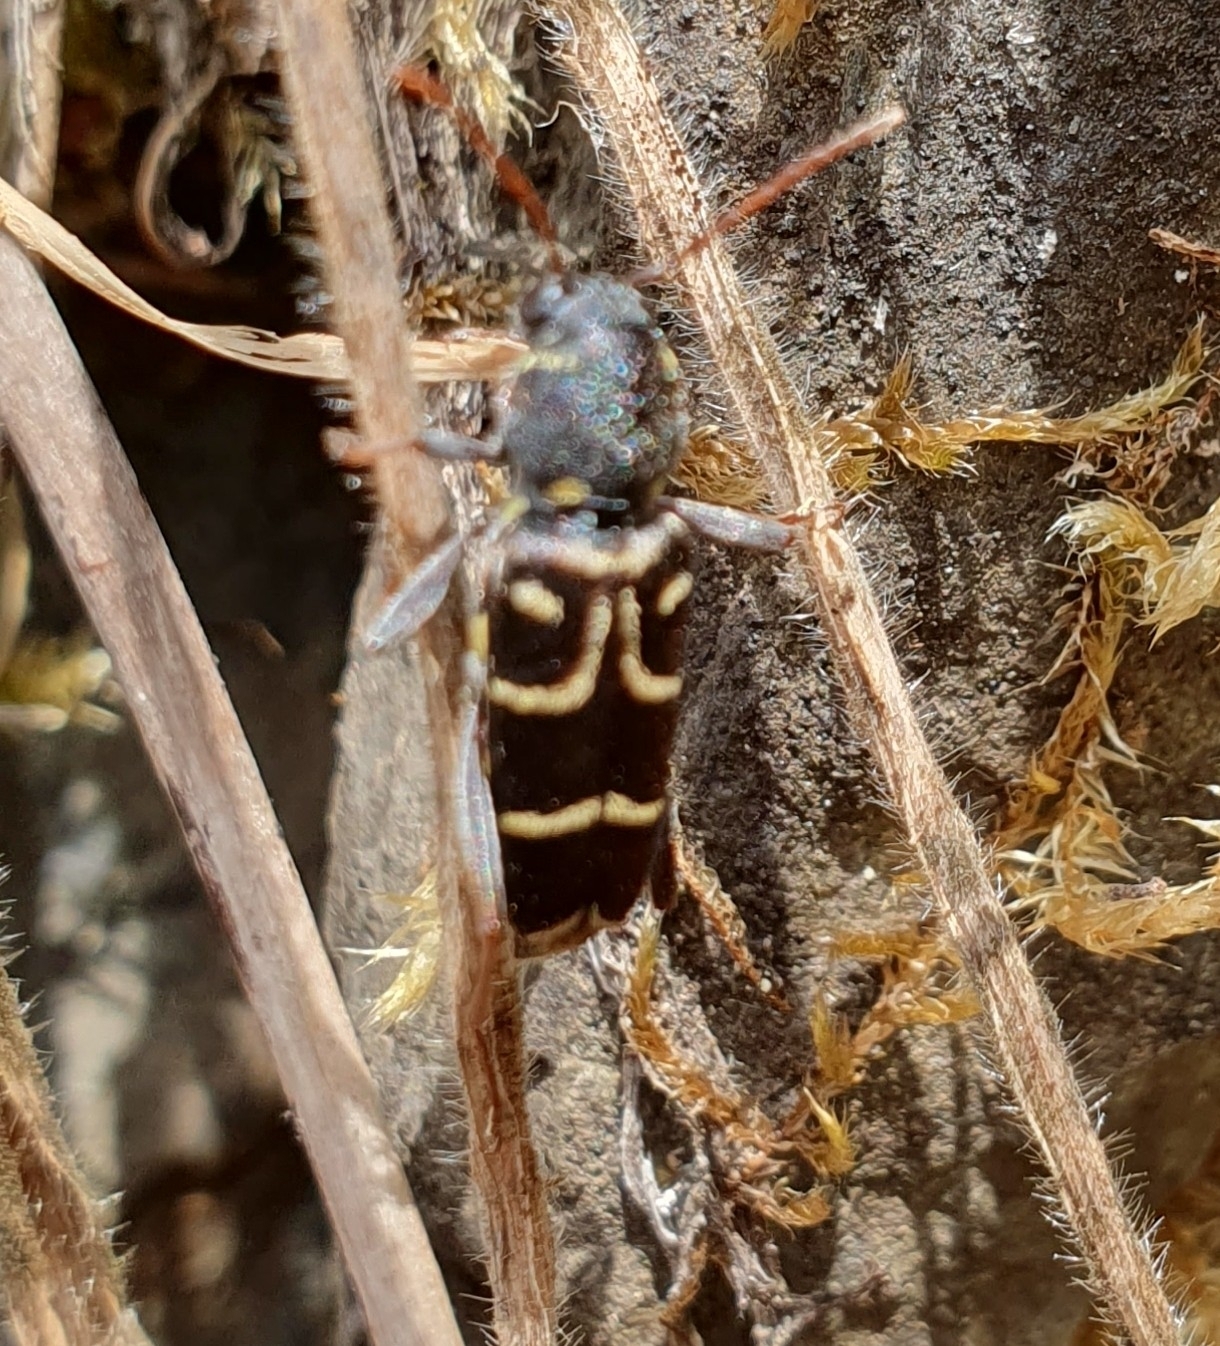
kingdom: Animalia
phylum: Arthropoda
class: Insecta
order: Coleoptera
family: Cerambycidae
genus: Xylotrechus
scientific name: Xylotrechus antilope
